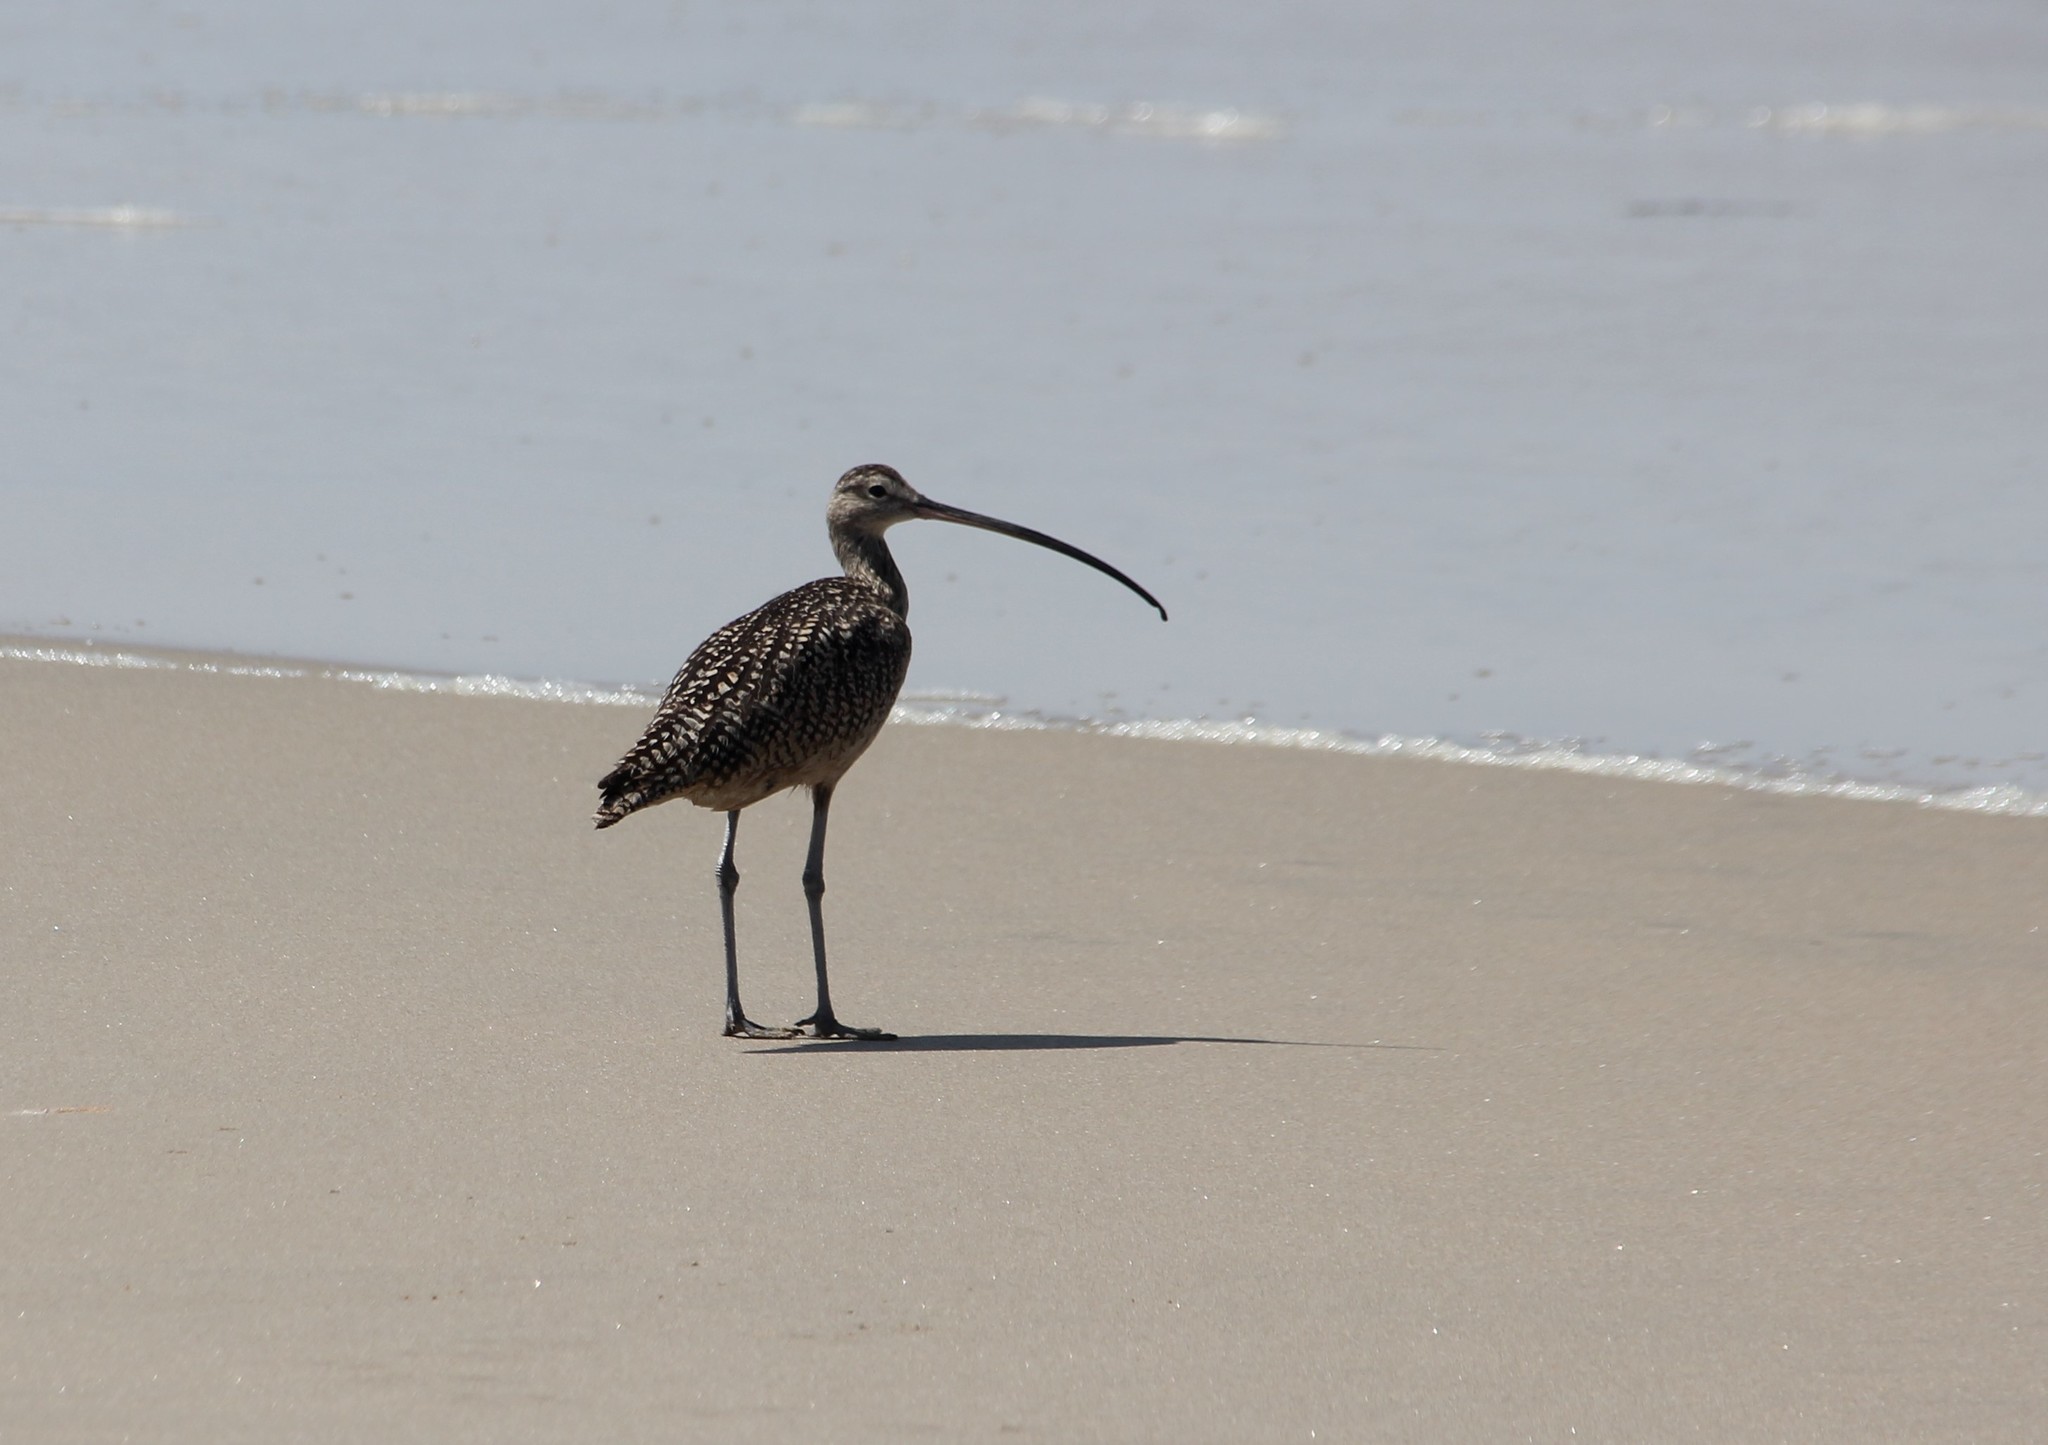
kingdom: Animalia
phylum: Chordata
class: Aves
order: Charadriiformes
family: Scolopacidae
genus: Numenius
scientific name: Numenius americanus
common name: Long-billed curlew
